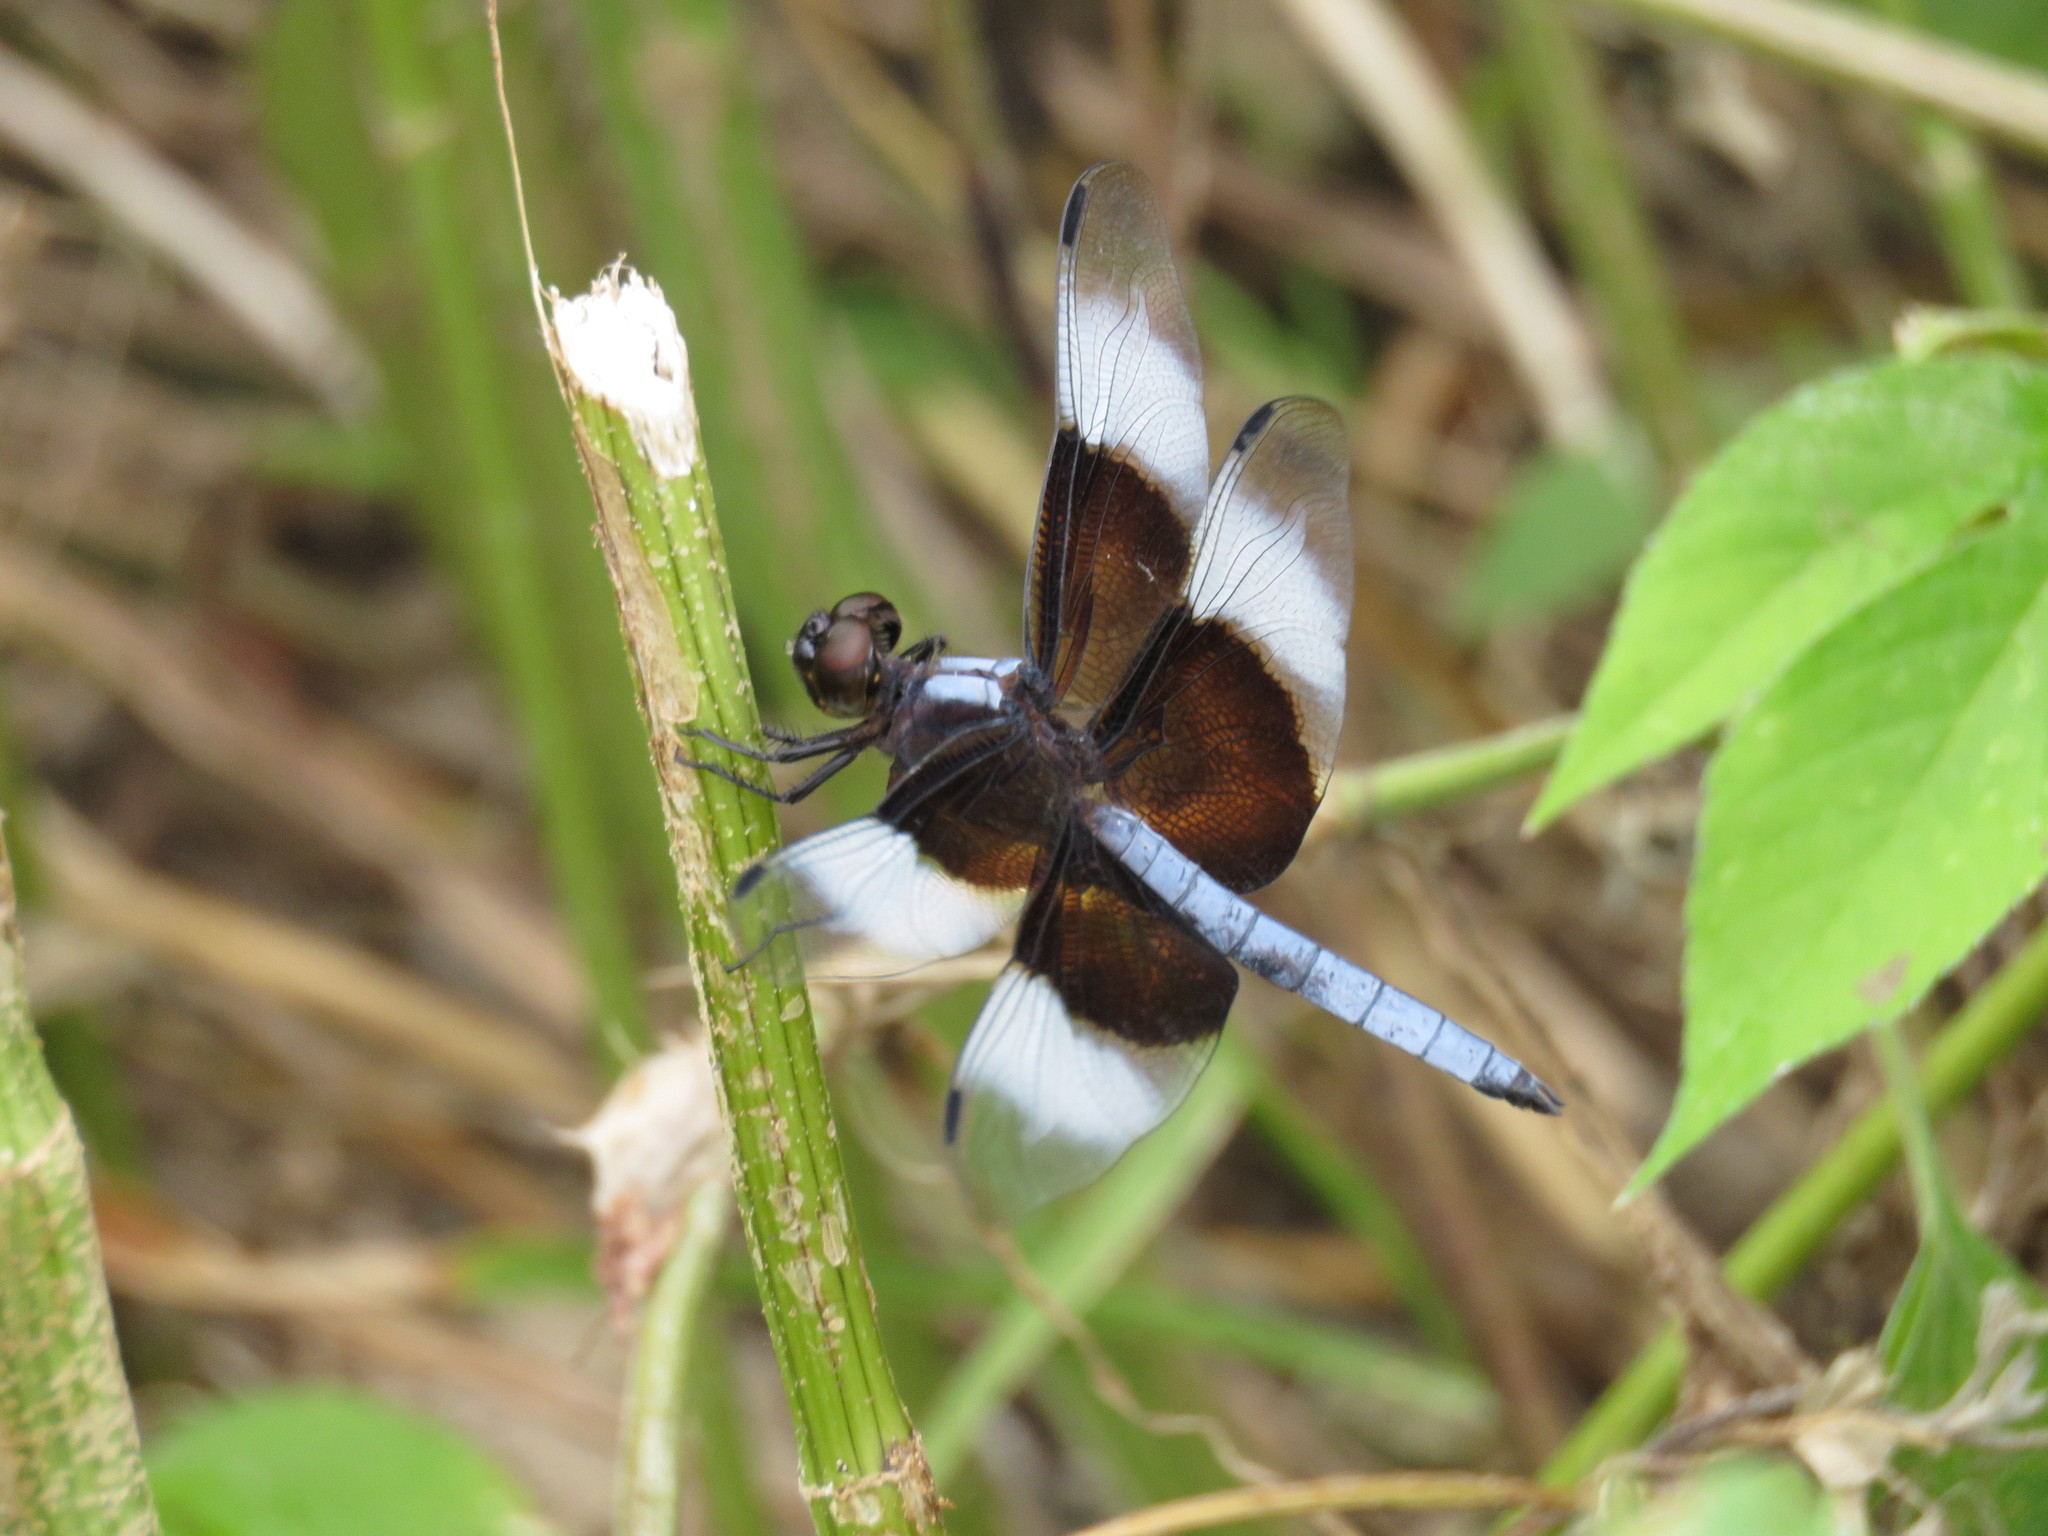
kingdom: Animalia
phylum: Arthropoda
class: Insecta
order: Odonata
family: Libellulidae
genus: Libellula
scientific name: Libellula luctuosa
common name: Widow skimmer
